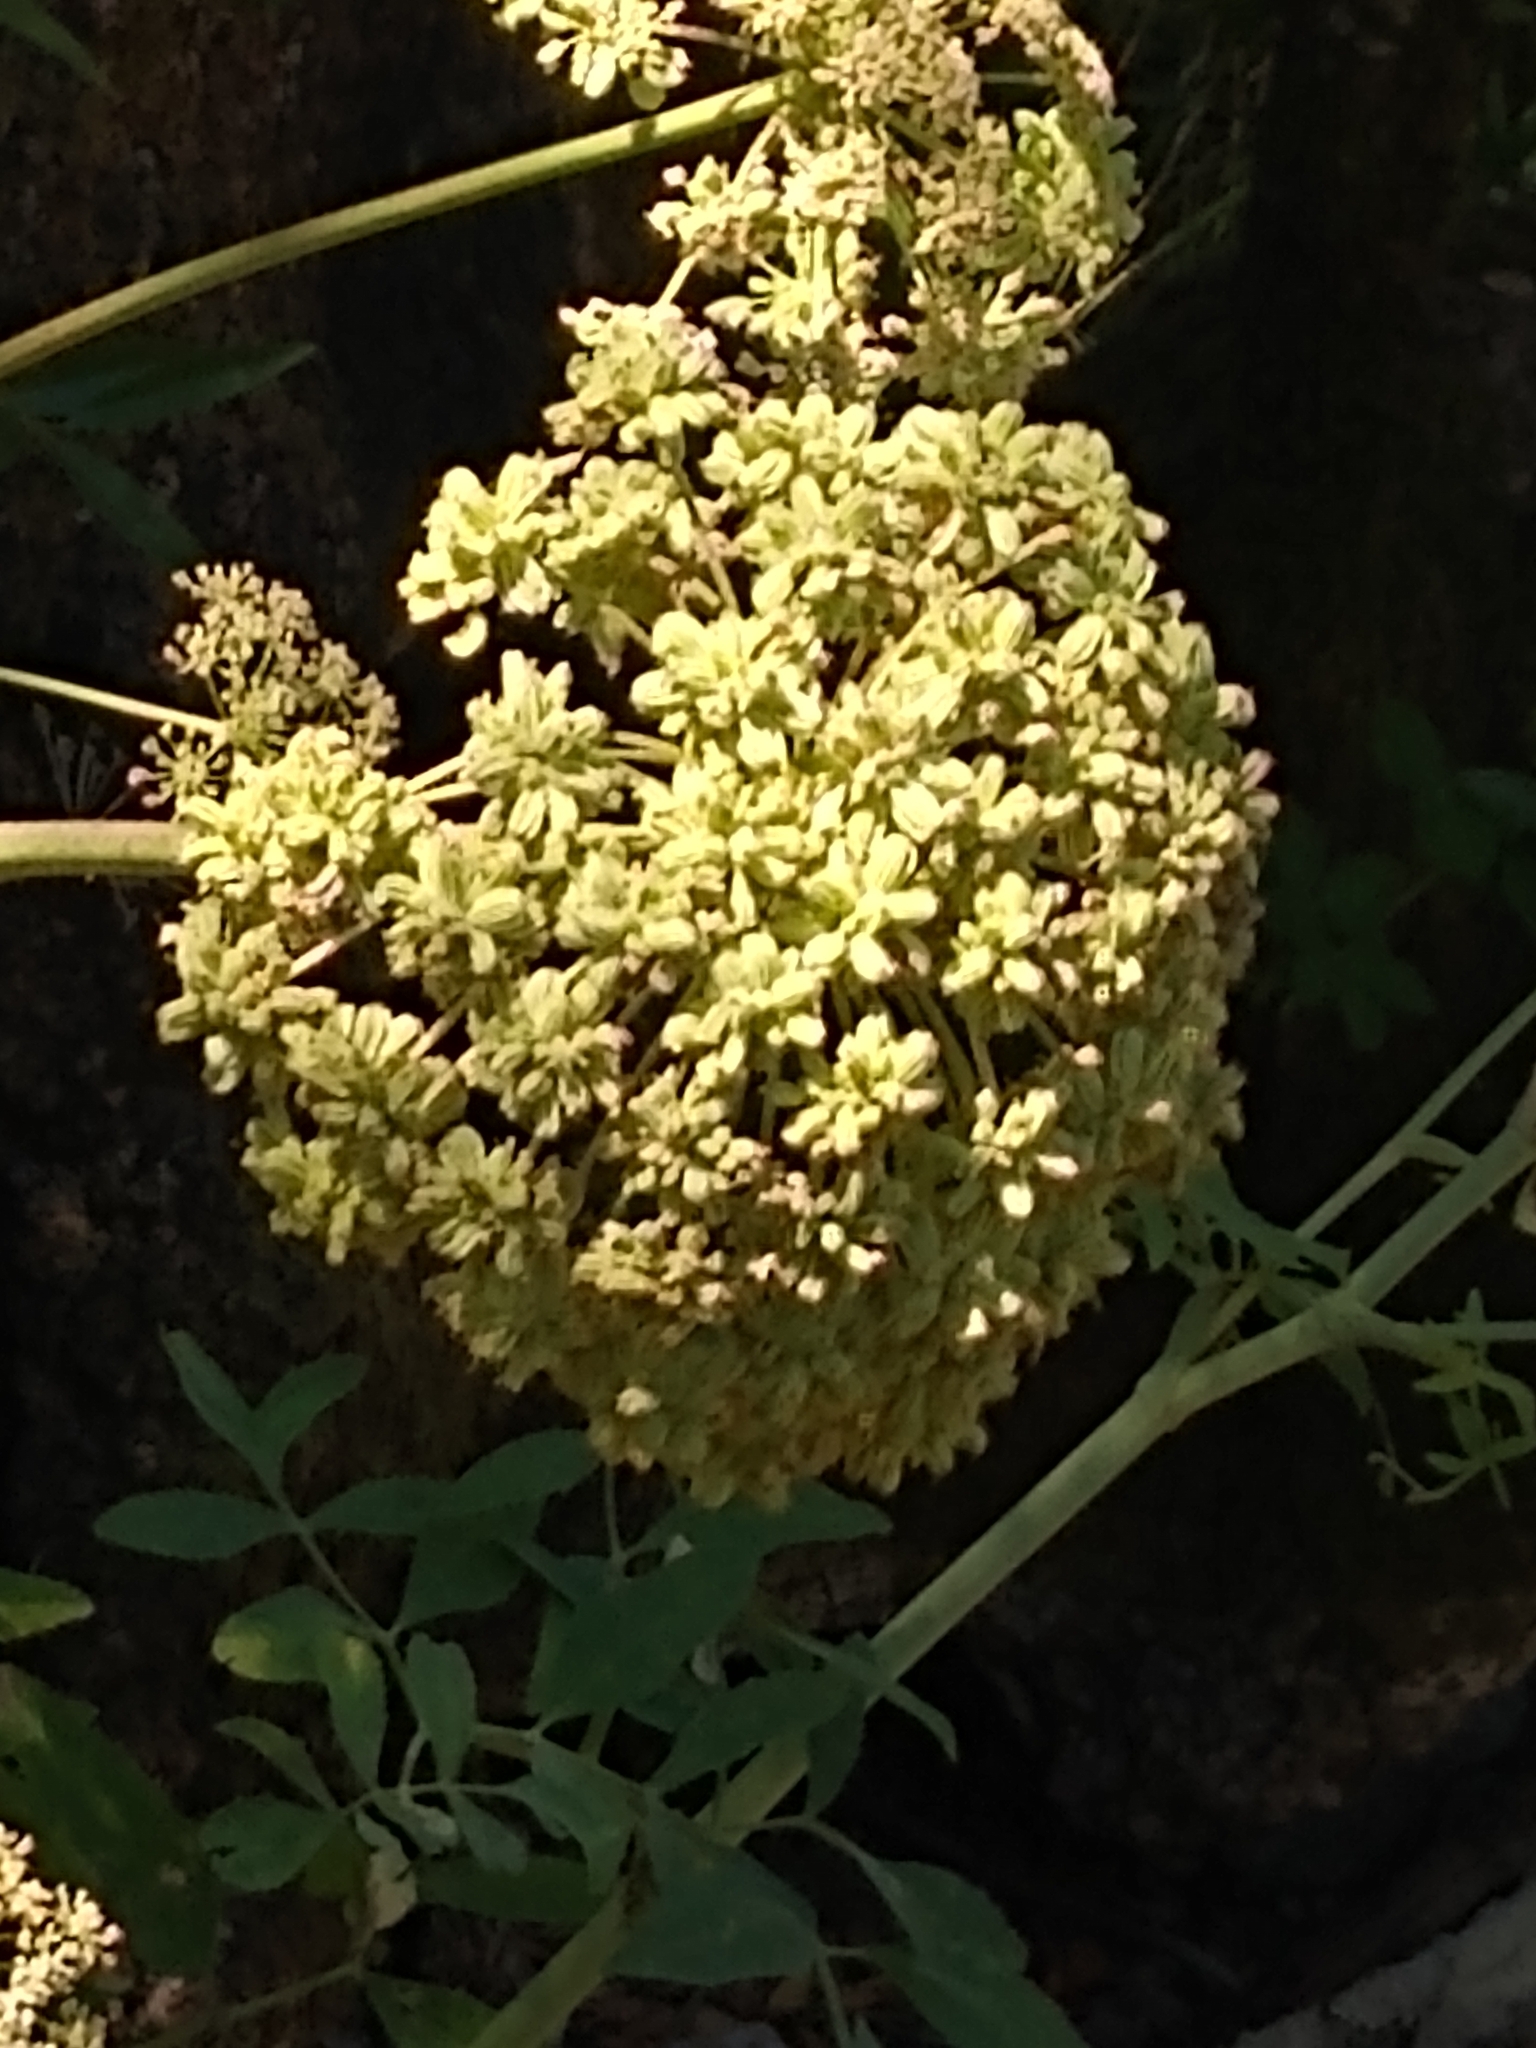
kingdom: Plantae
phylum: Tracheophyta
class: Magnoliopsida
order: Apiales
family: Apiaceae
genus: Angelica
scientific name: Angelica tomentosa
